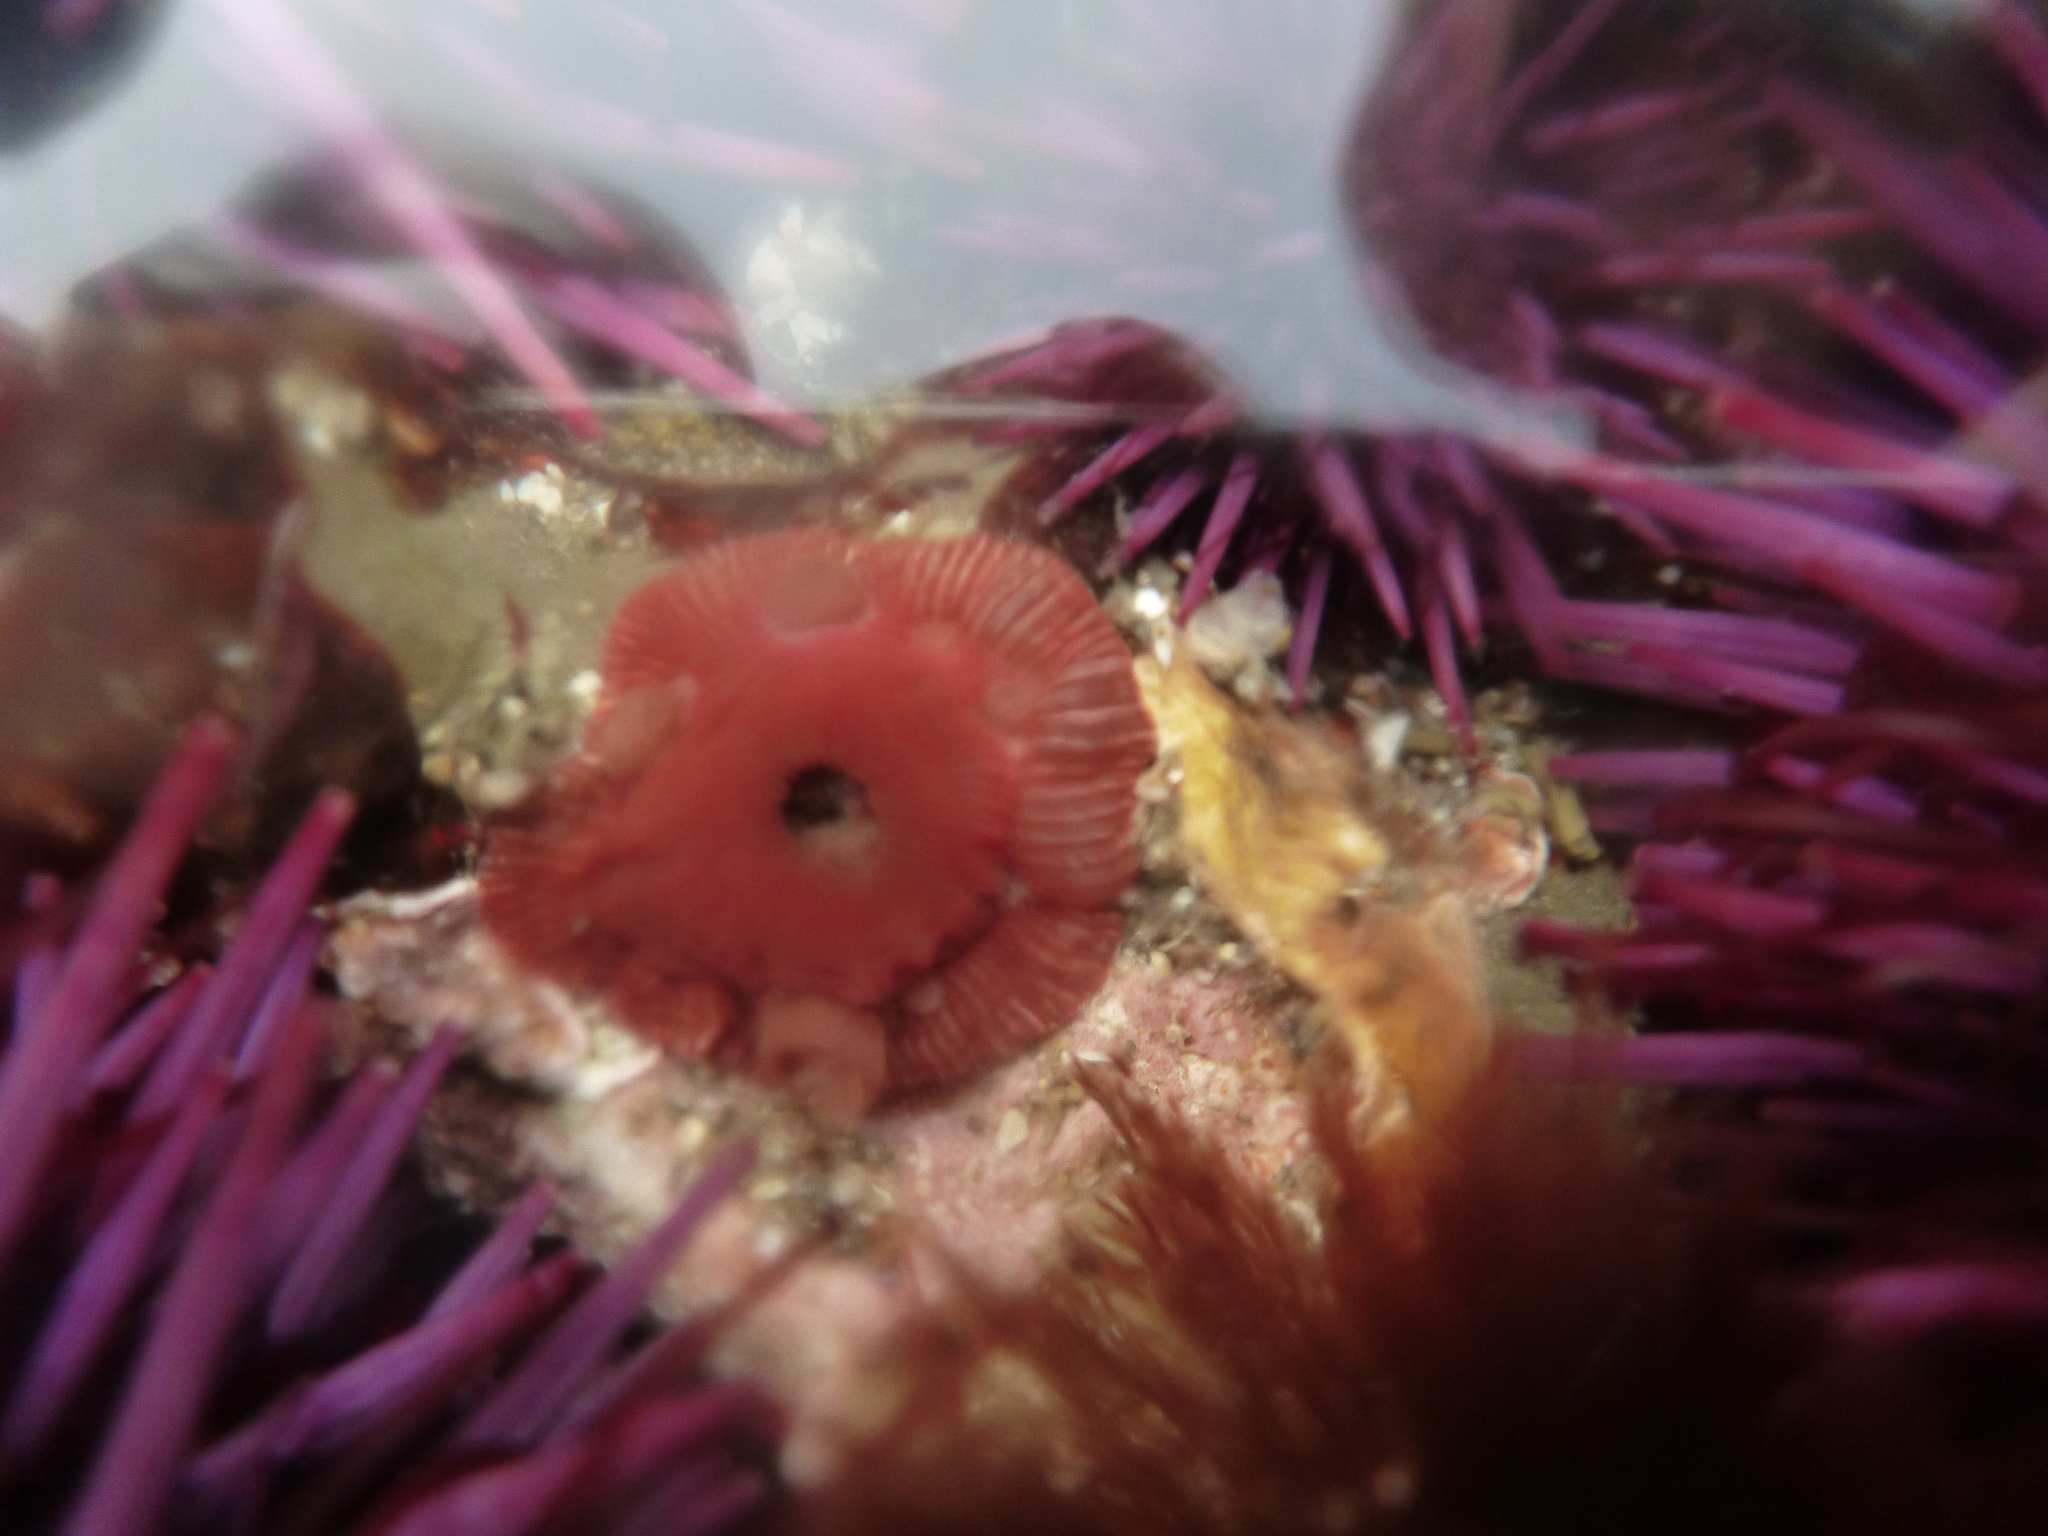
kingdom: Animalia
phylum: Cnidaria
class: Anthozoa
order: Actiniaria
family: Actiniidae
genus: Epiactis
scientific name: Epiactis prolifera
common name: Brooding anemone
